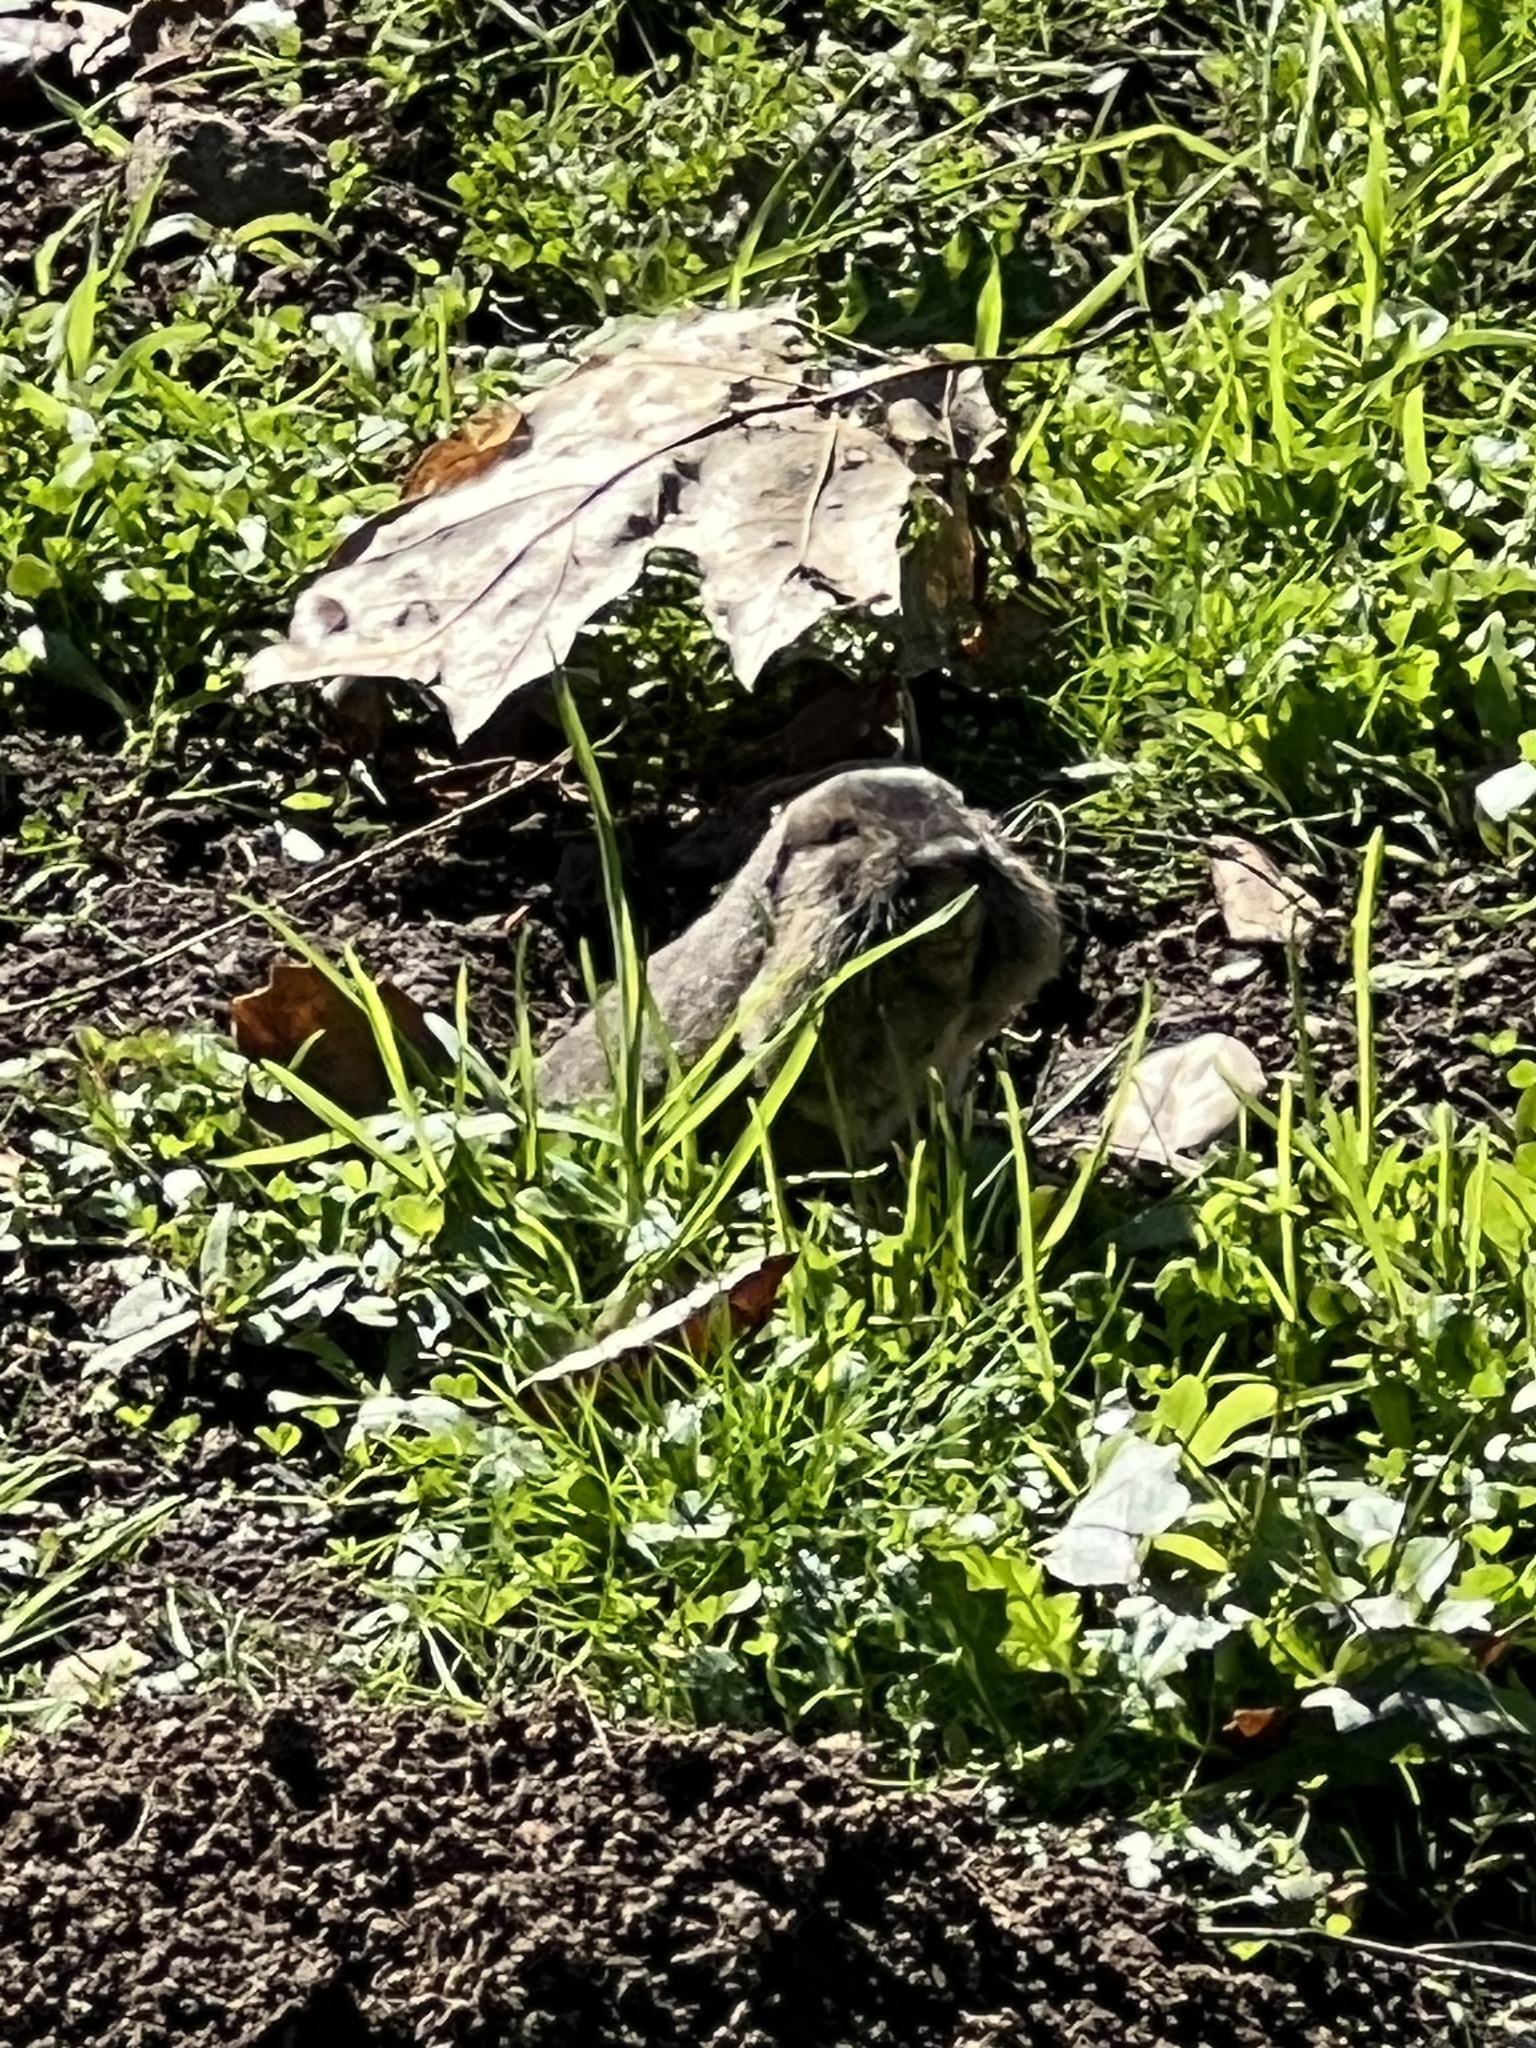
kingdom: Animalia
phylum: Chordata
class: Mammalia
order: Rodentia
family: Geomyidae
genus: Thomomys
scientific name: Thomomys bottae
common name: Botta's pocket gopher
